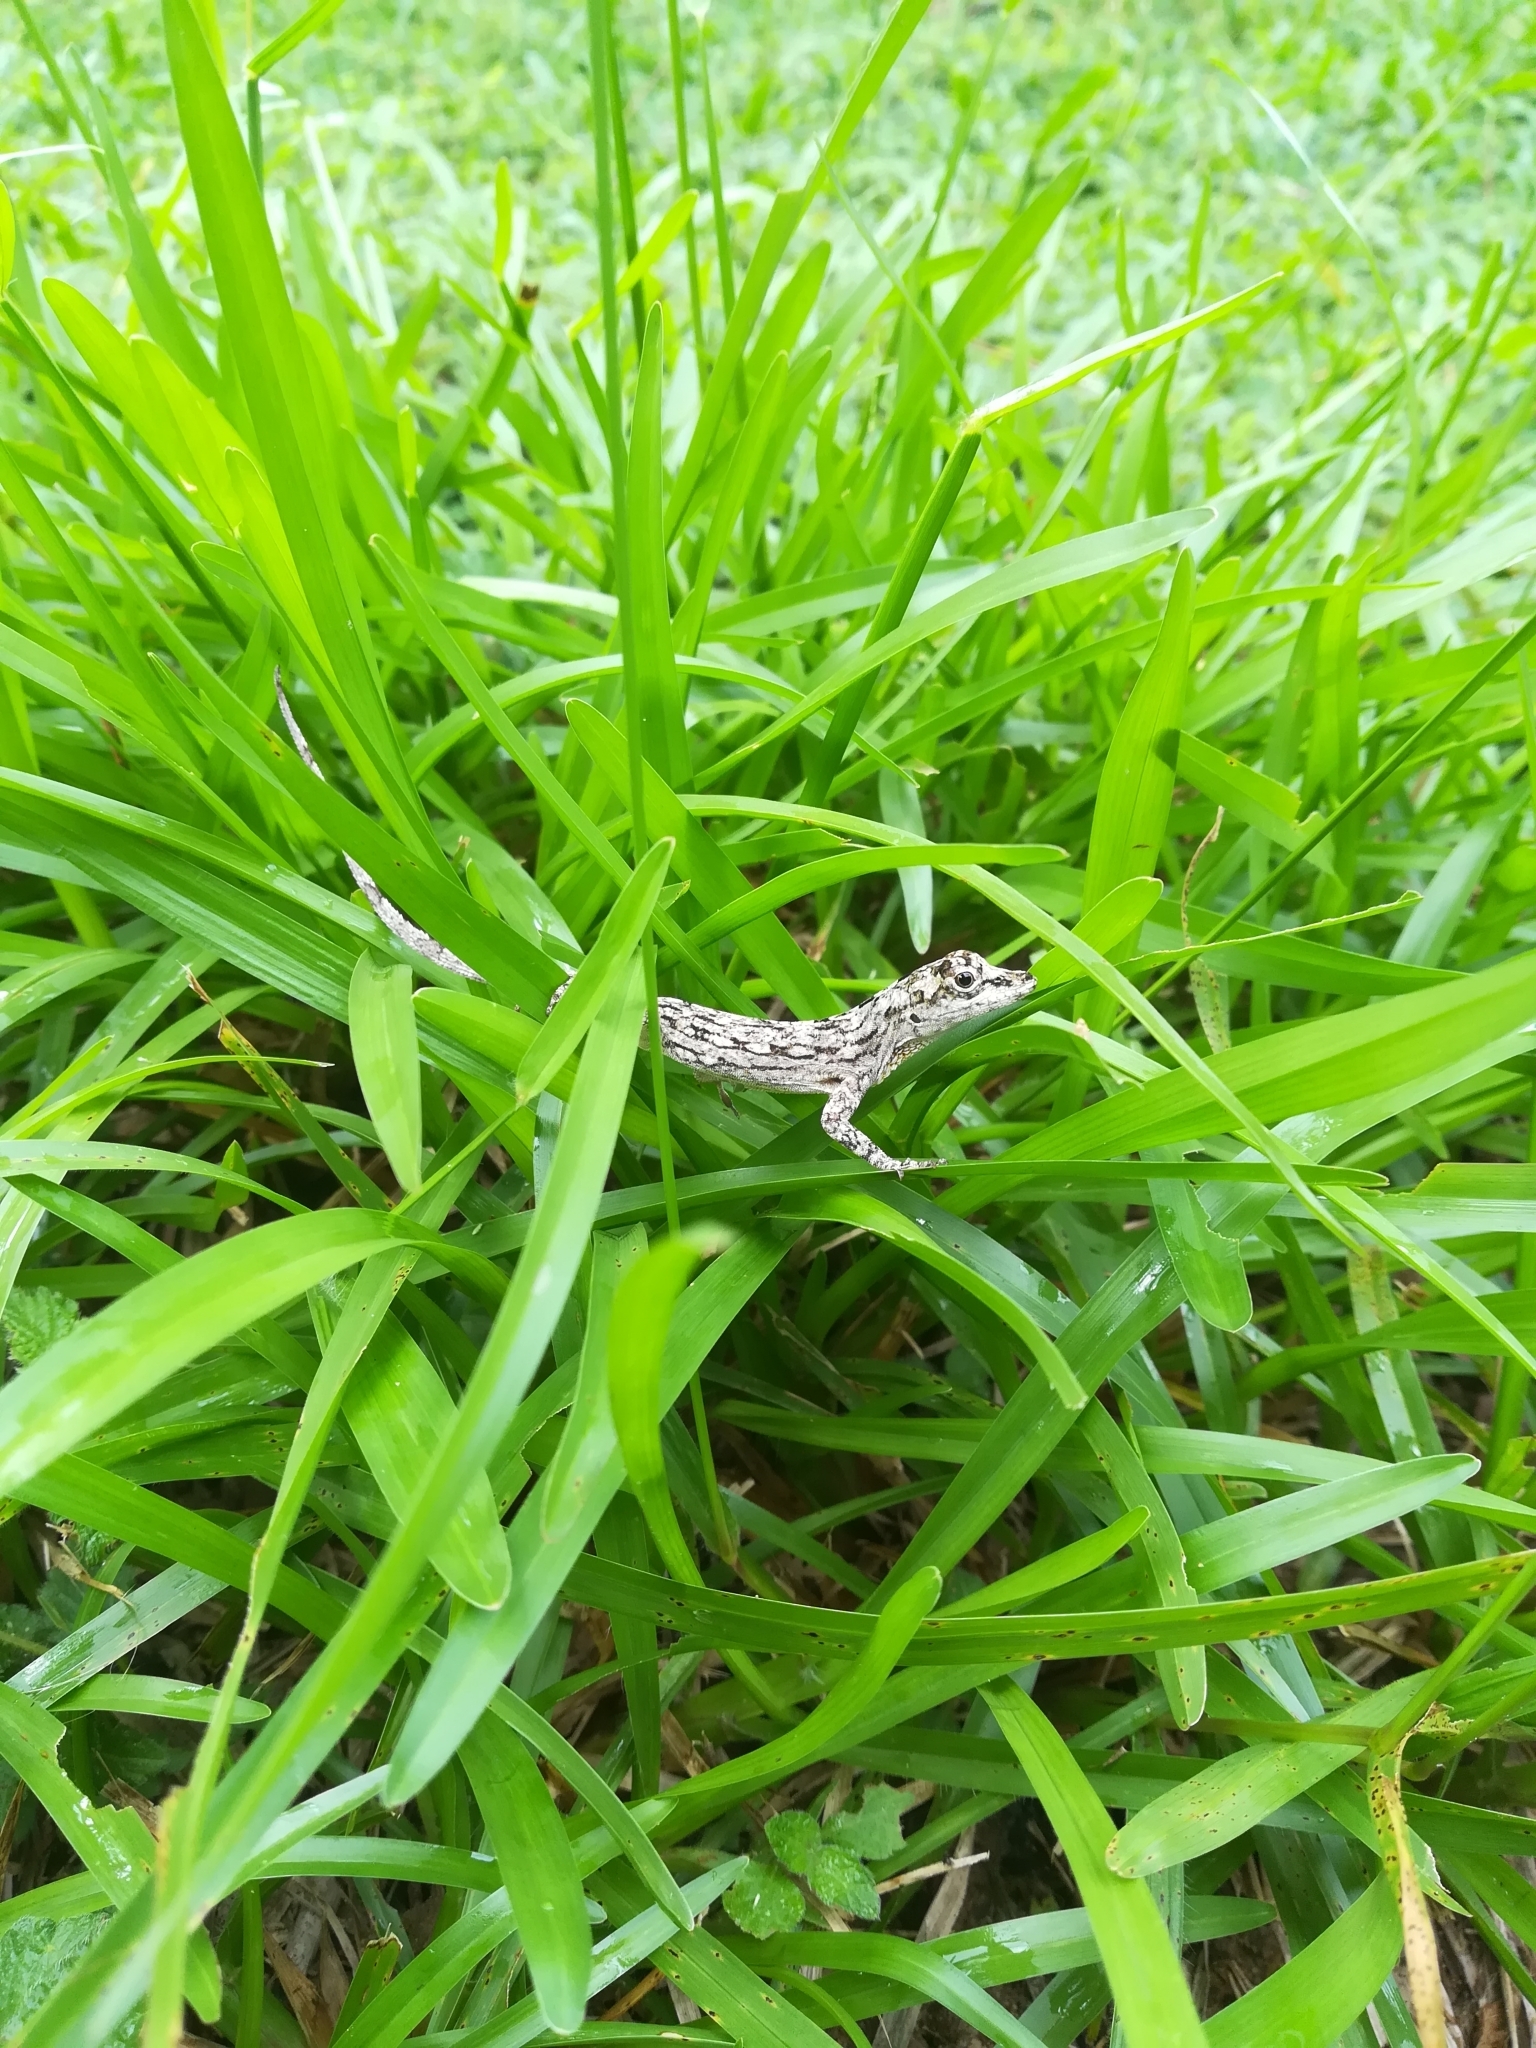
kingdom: Animalia
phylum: Chordata
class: Squamata
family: Dactyloidae
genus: Anolis
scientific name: Anolis ortonii
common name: Bark anole
